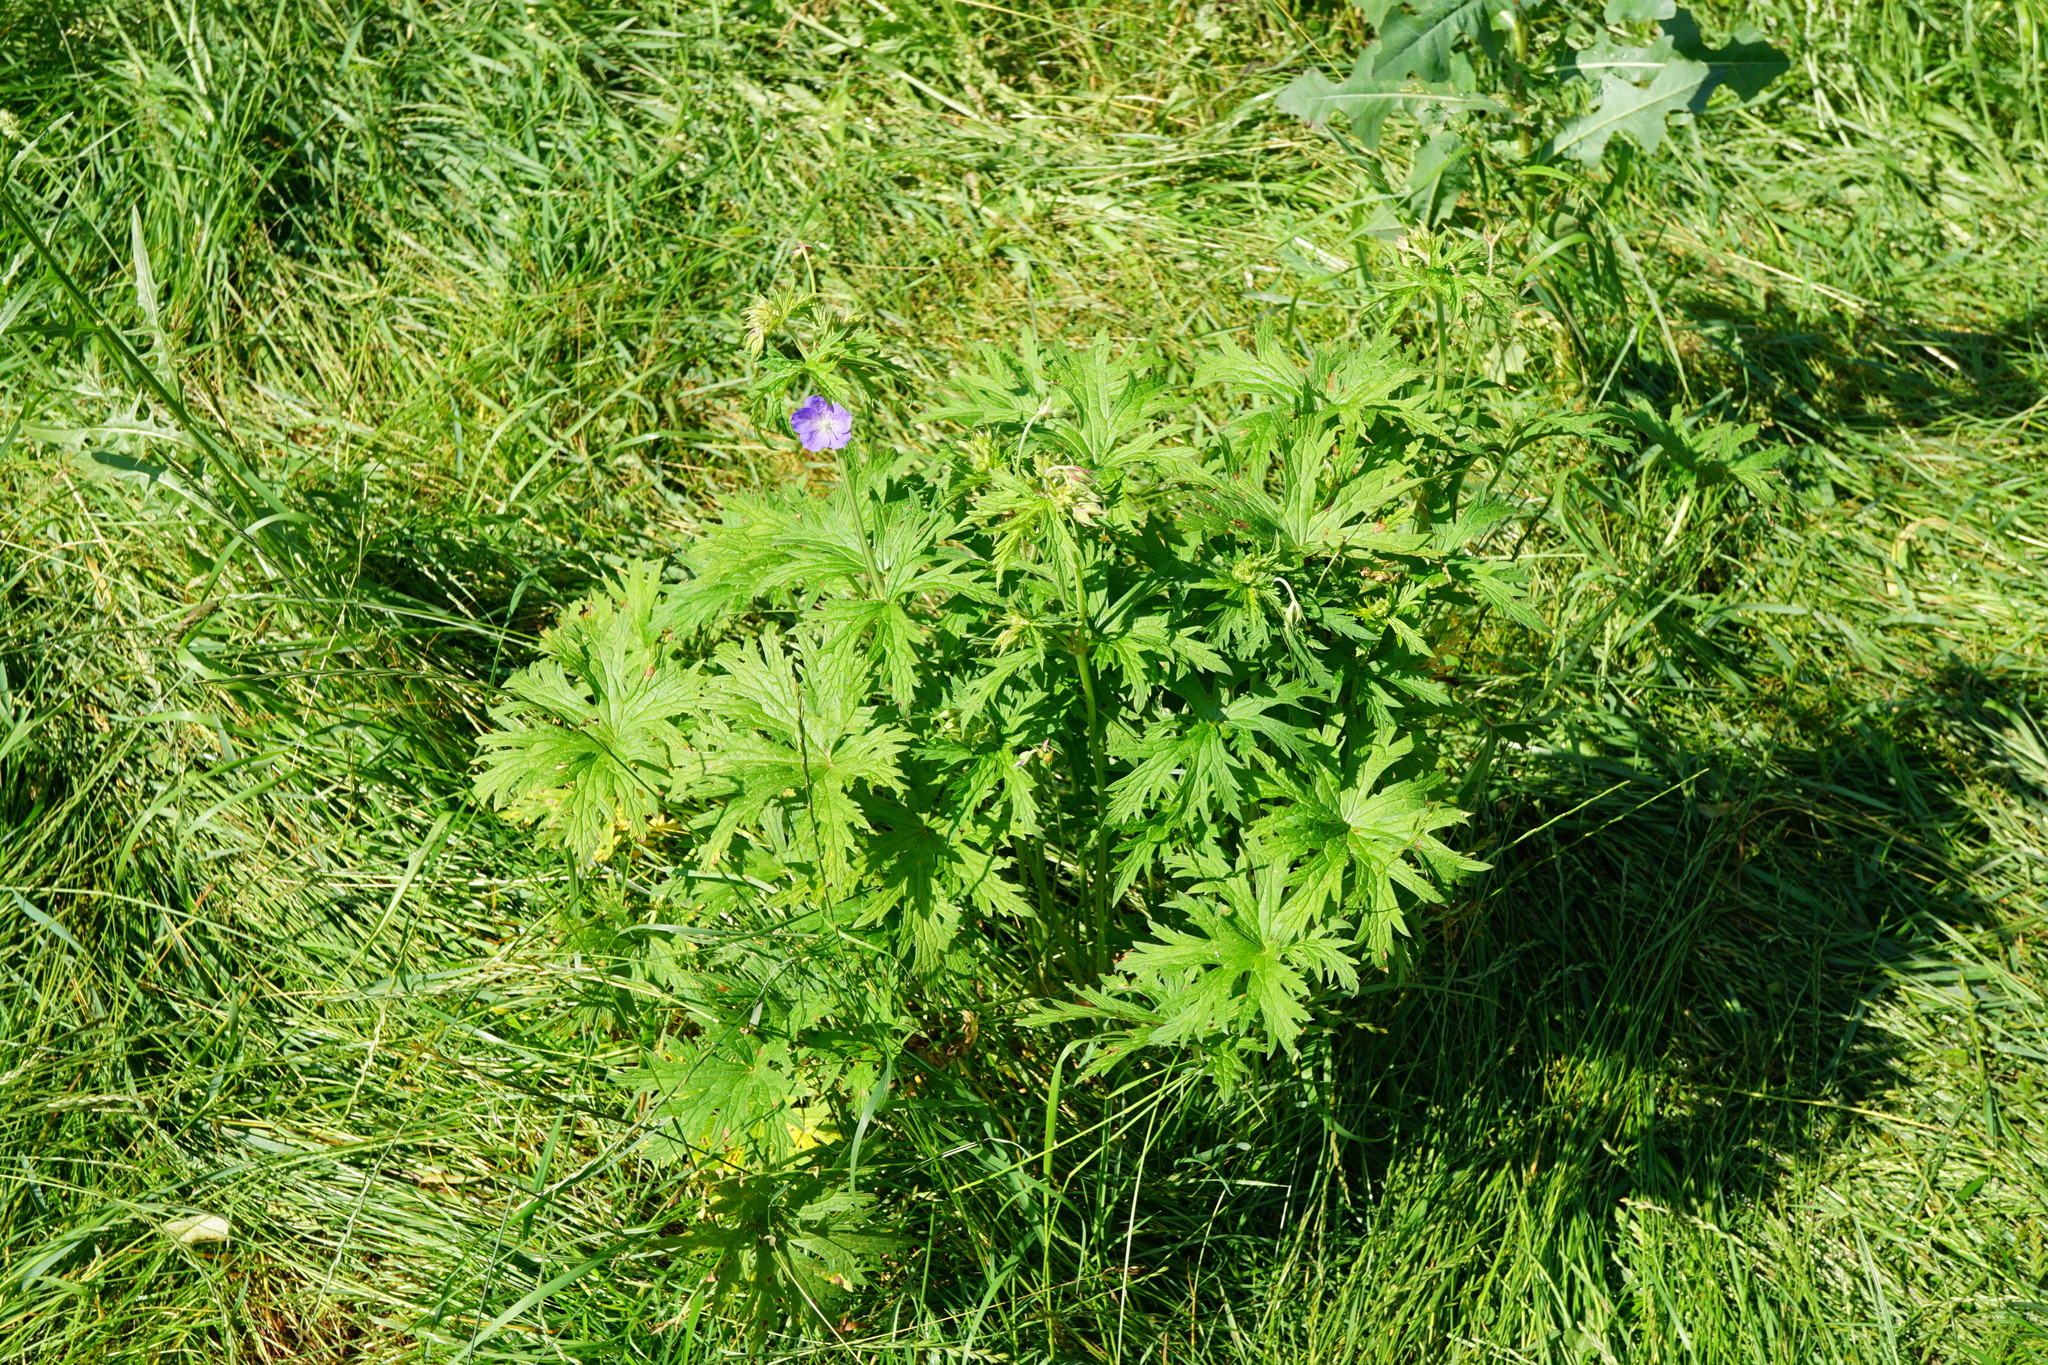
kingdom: Plantae
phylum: Tracheophyta
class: Magnoliopsida
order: Geraniales
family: Geraniaceae
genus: Geranium
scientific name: Geranium pratense
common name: Meadow crane's-bill
